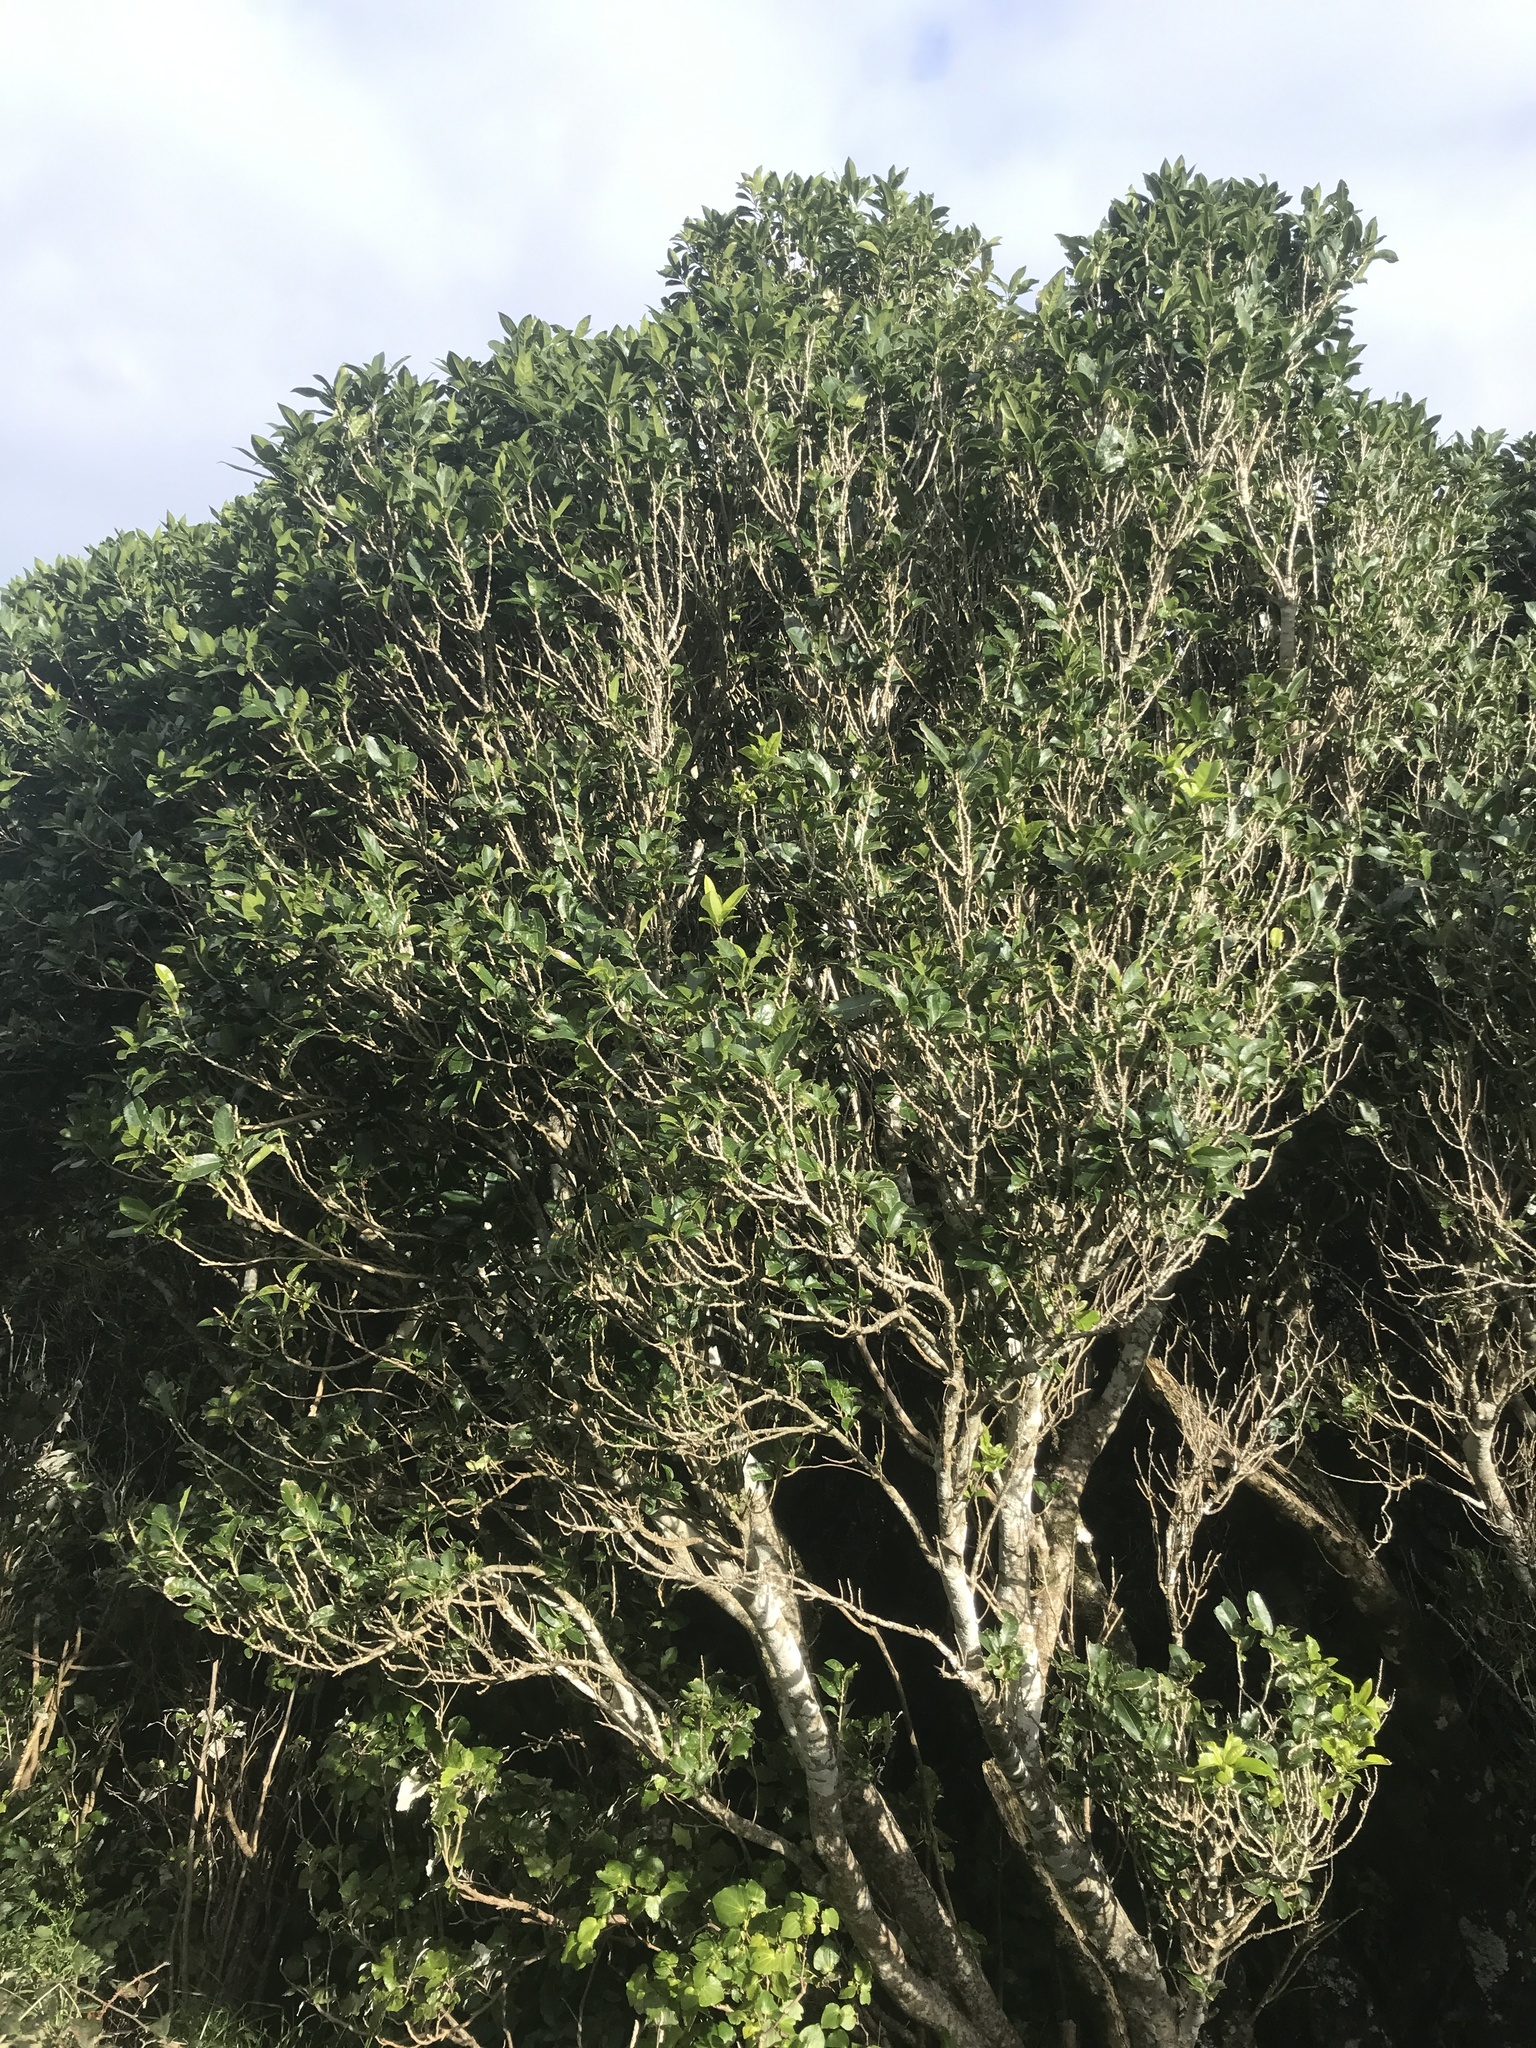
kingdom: Plantae
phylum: Tracheophyta
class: Magnoliopsida
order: Malpighiales
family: Violaceae
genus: Melicytus
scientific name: Melicytus ramiflorus
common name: Mahoe
